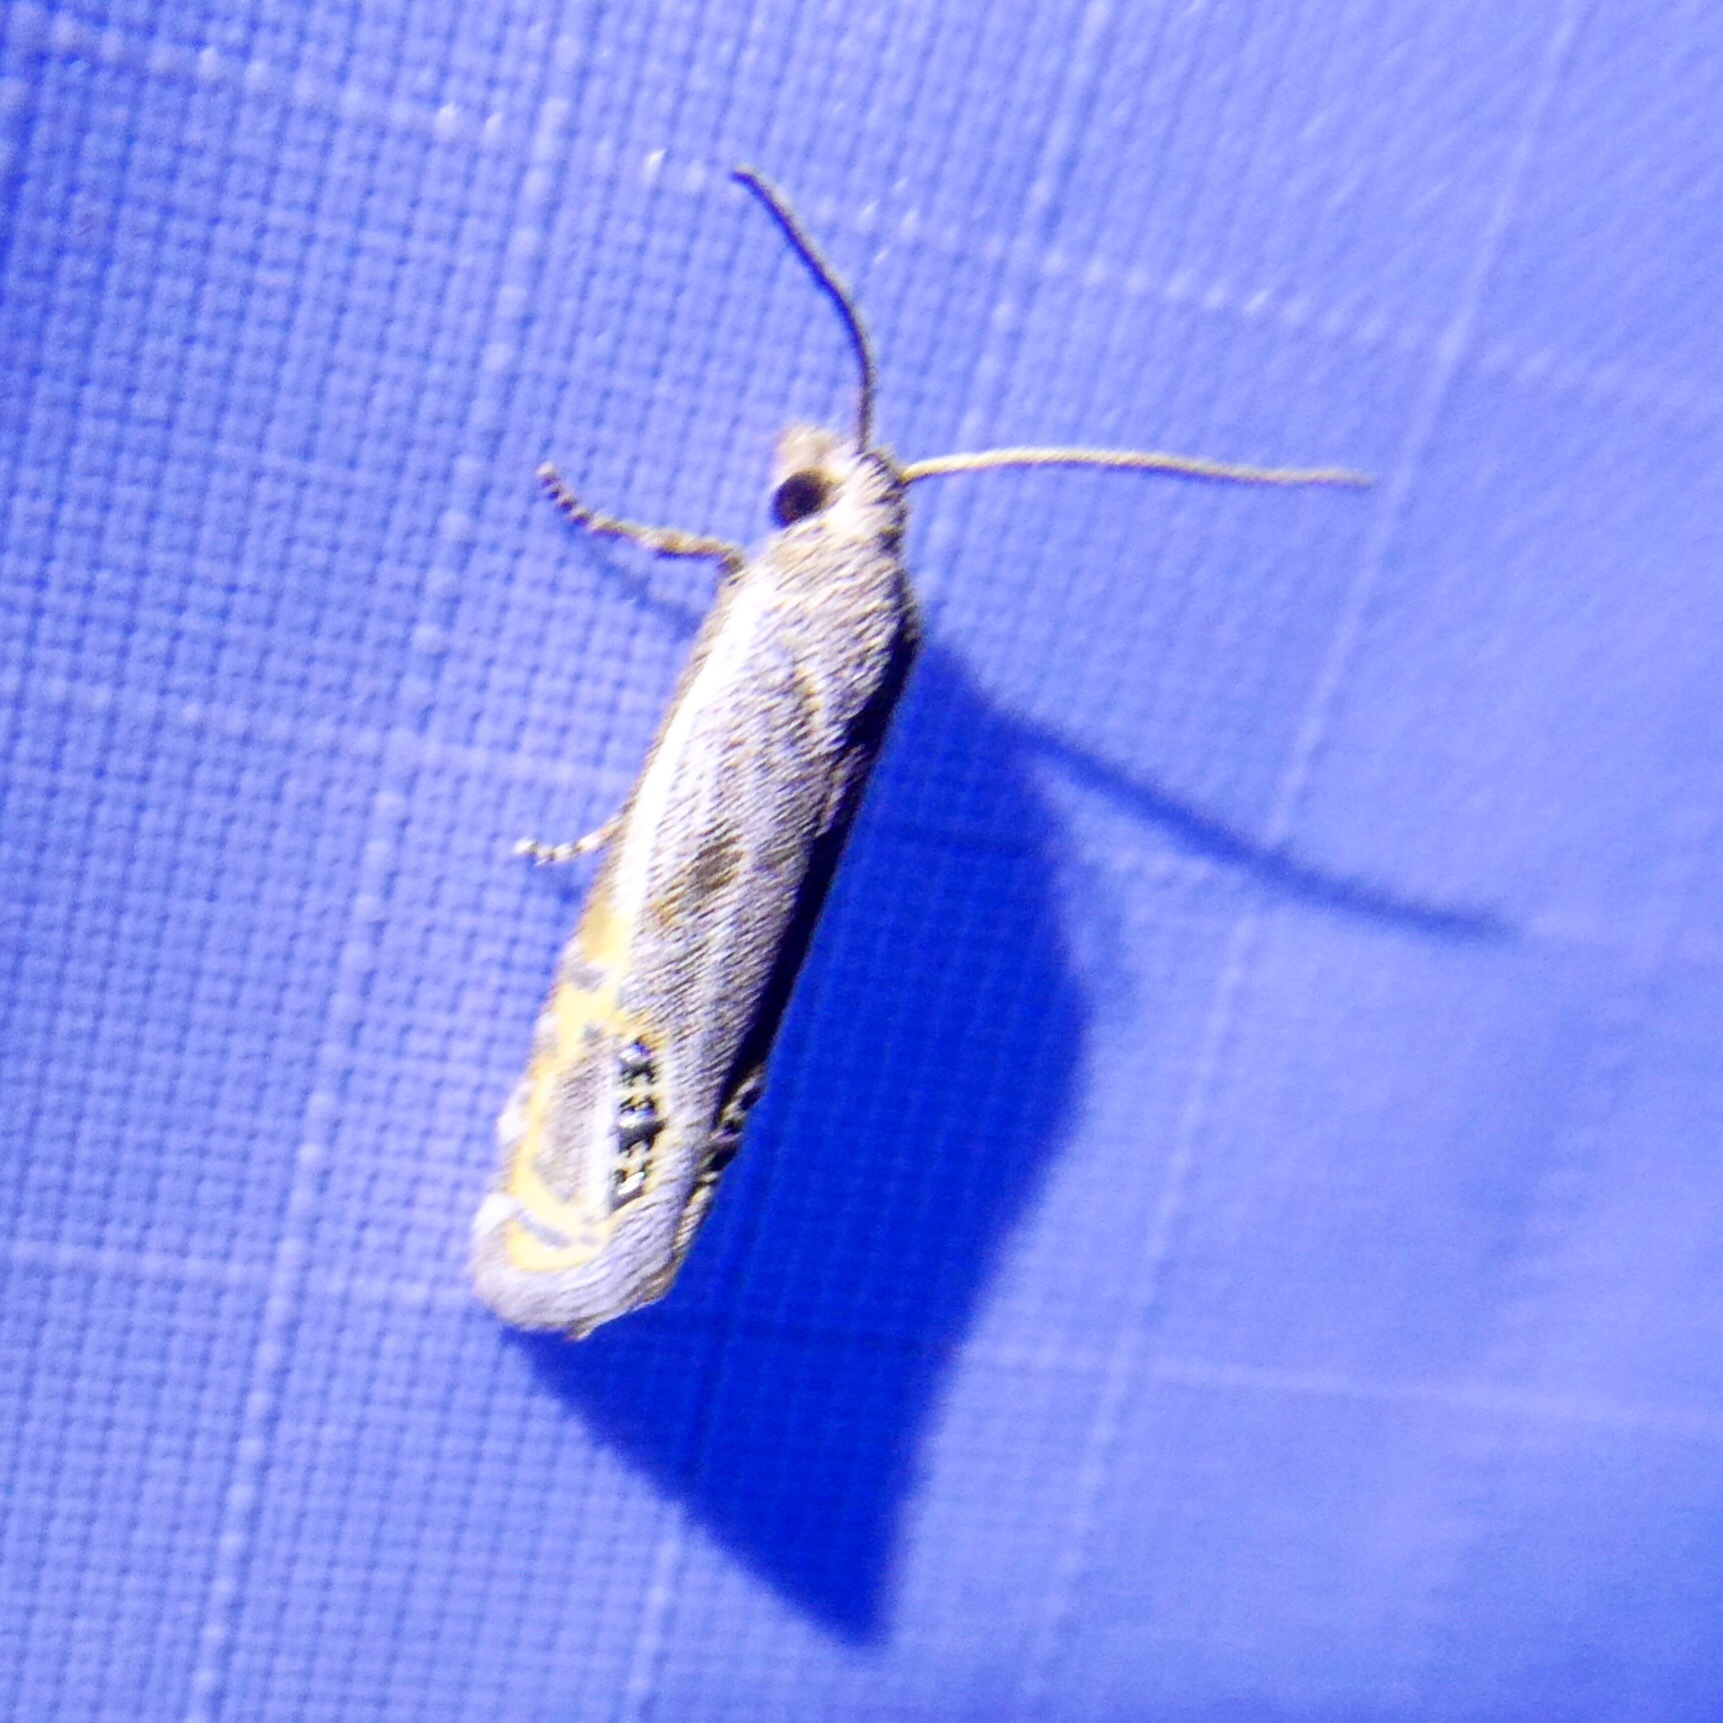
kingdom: Animalia
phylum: Arthropoda
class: Insecta
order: Lepidoptera
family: Tortricidae
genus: Pelochrista
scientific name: Pelochrista scintillana
